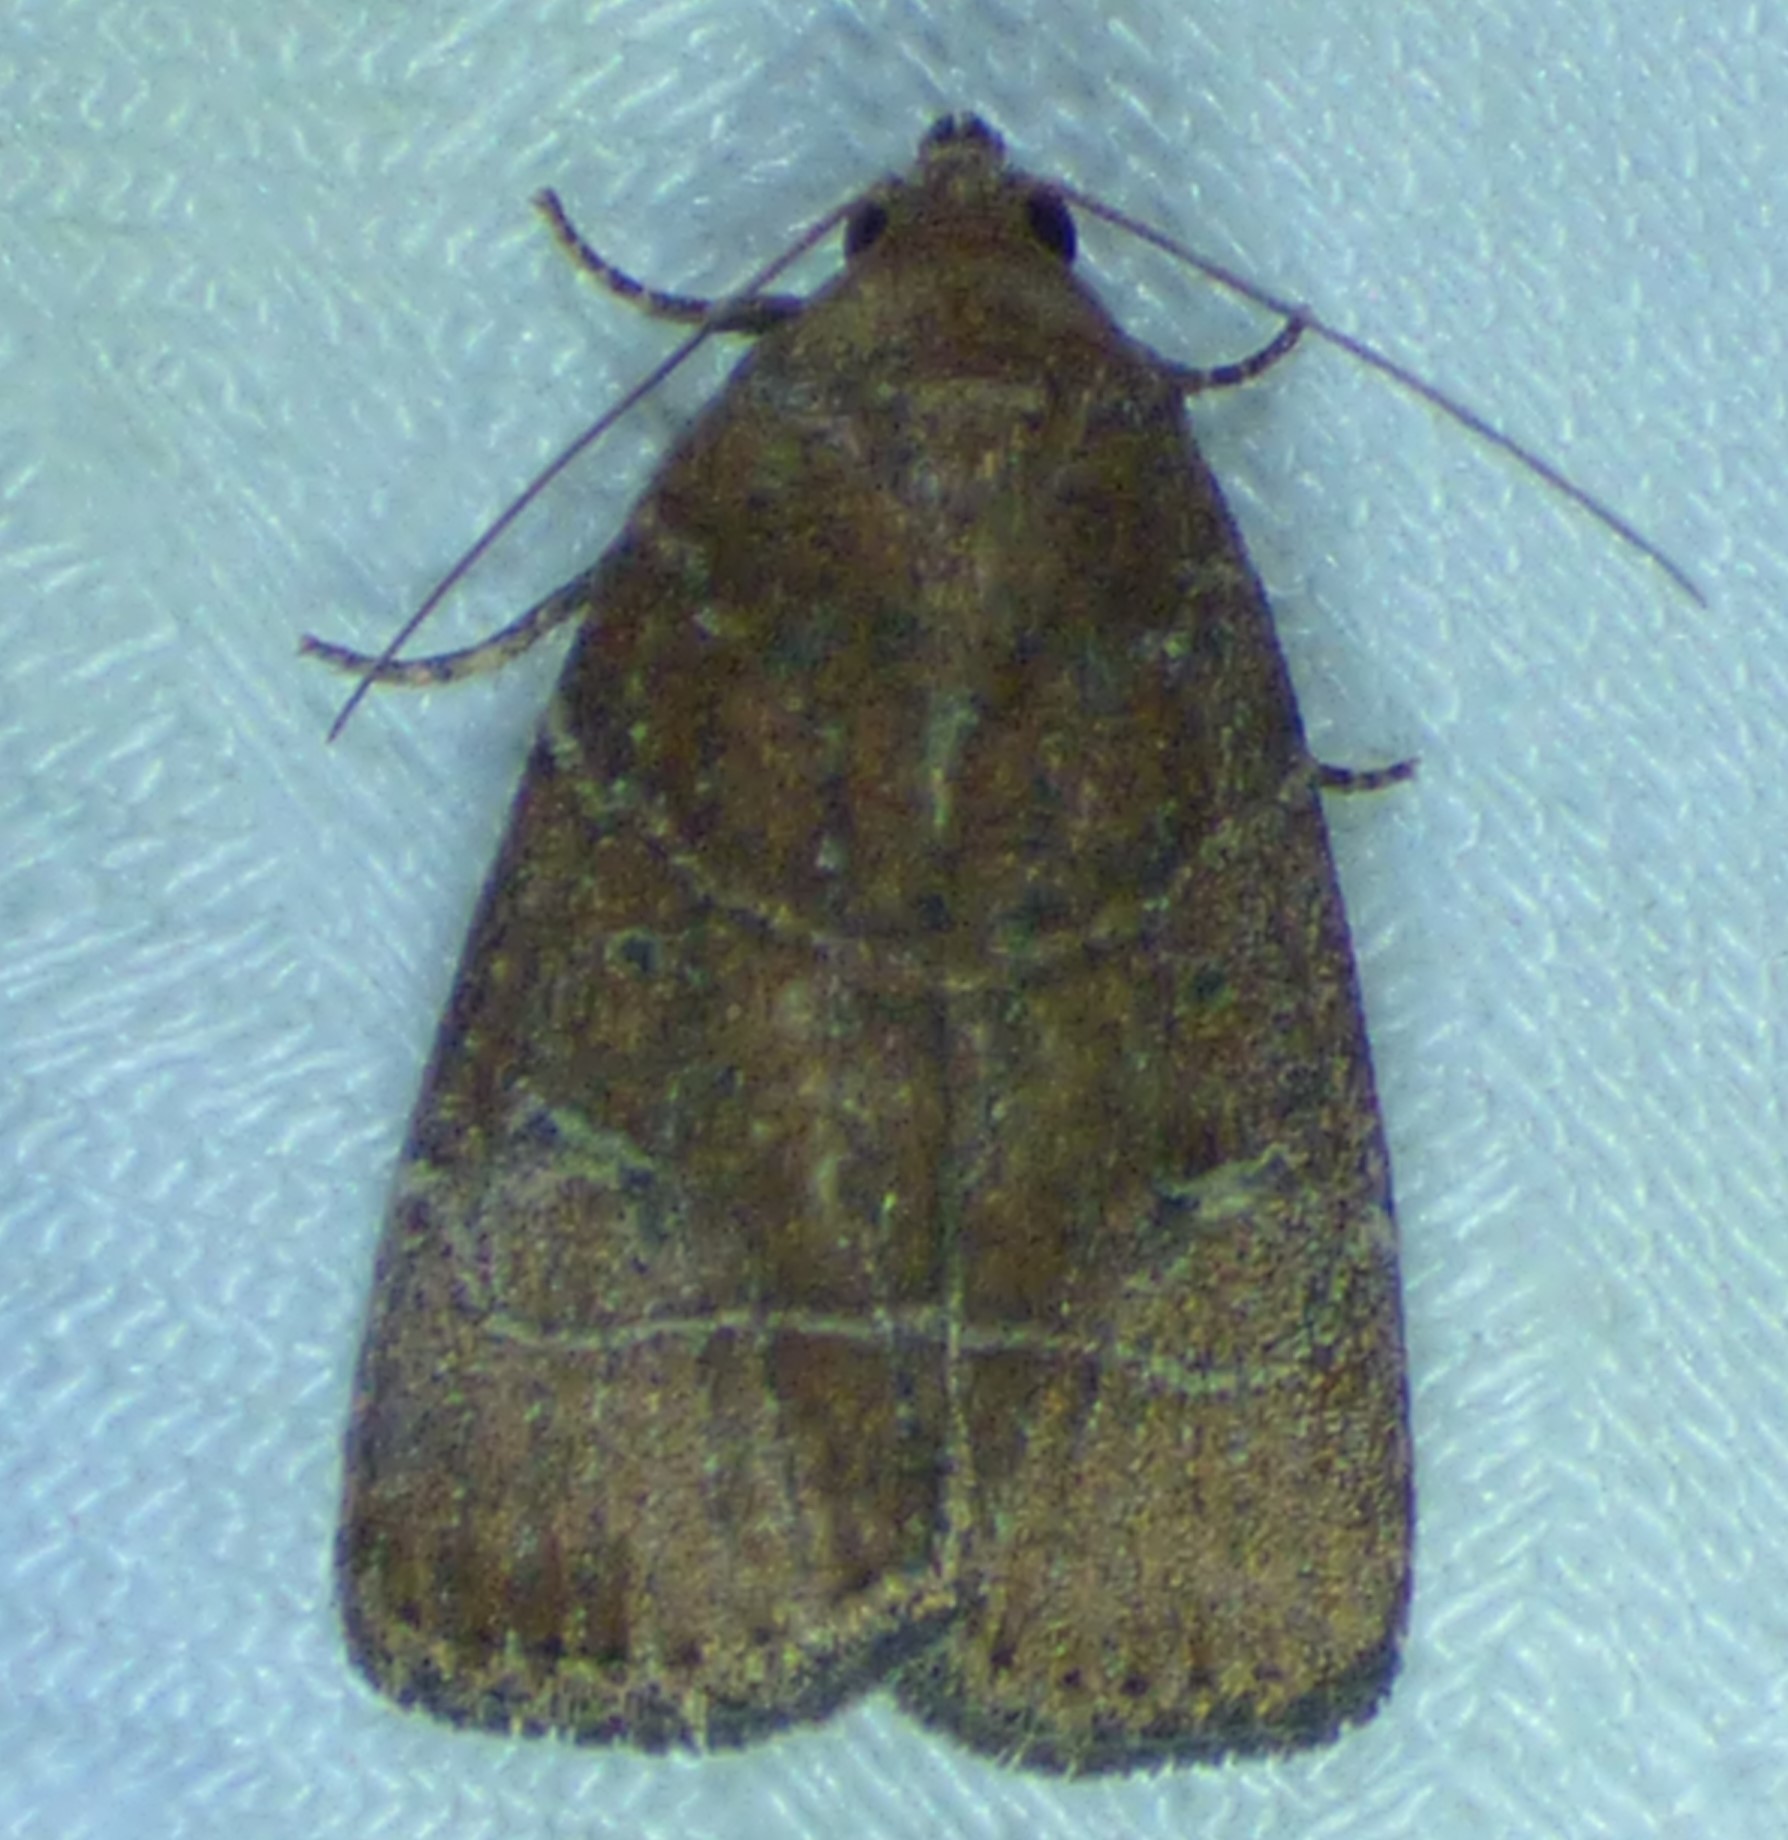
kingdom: Animalia
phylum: Arthropoda
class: Insecta
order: Lepidoptera
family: Noctuidae
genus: Elaphria
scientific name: Elaphria grata
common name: Grateful midget moth
